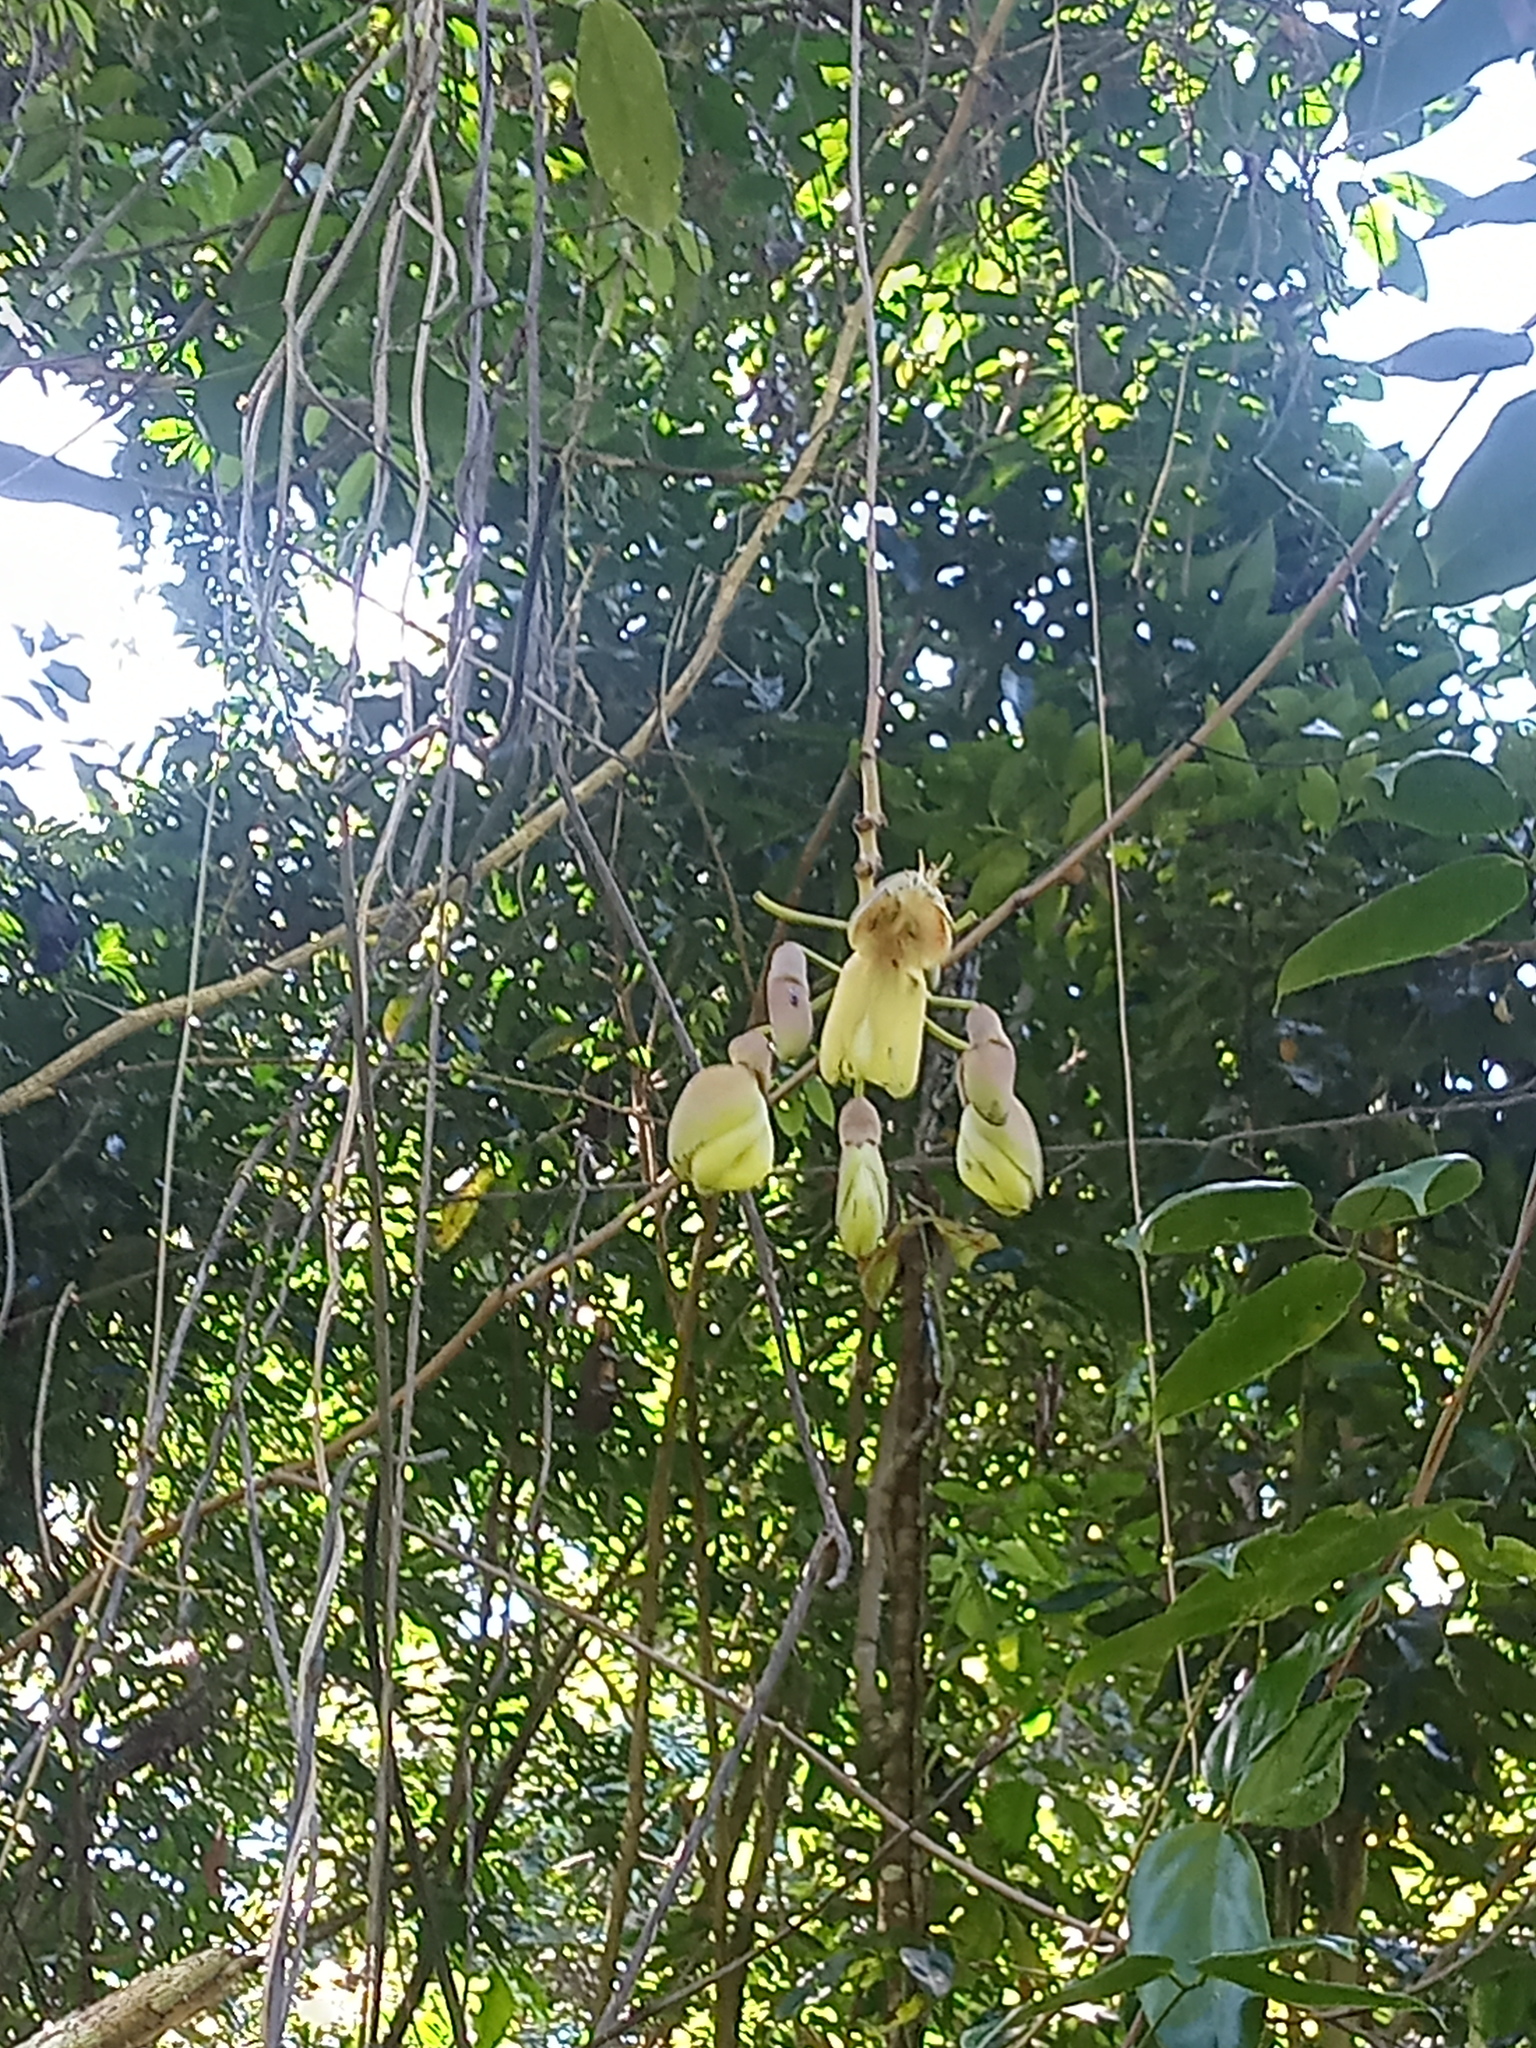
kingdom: Plantae
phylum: Tracheophyta
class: Magnoliopsida
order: Fabales
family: Fabaceae
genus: Mucuna
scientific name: Mucuna urens
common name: Red hamburger bean
